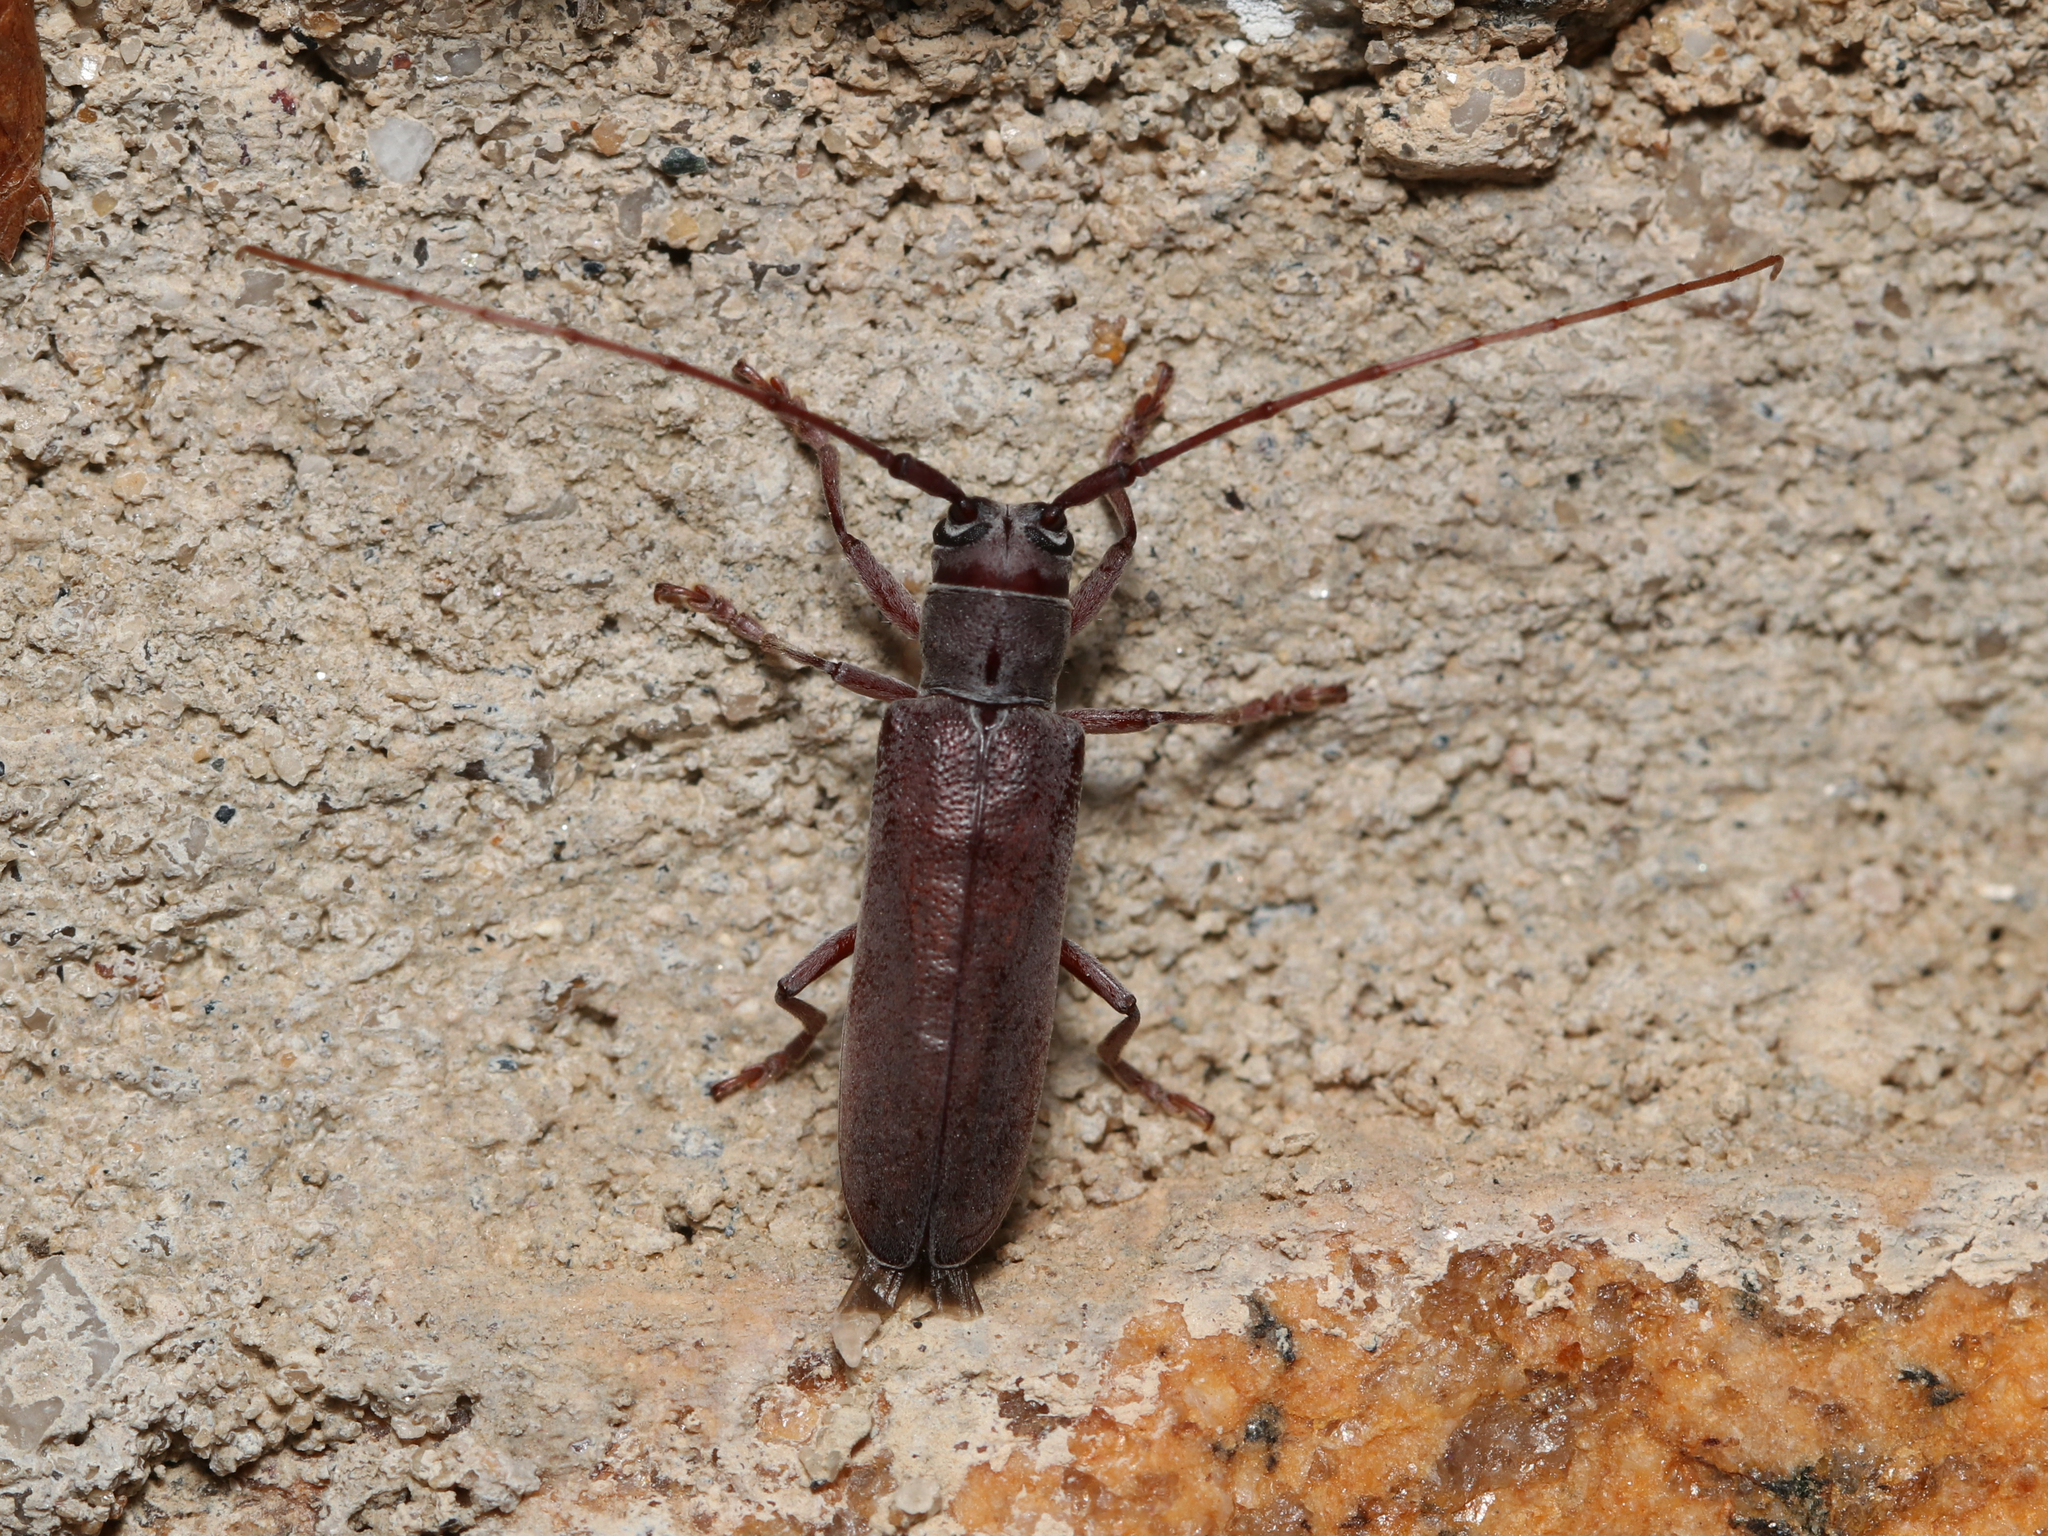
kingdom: Animalia
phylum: Arthropoda
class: Insecta
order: Coleoptera
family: Cerambycidae
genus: Hebestola
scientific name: Hebestola nebulosa
